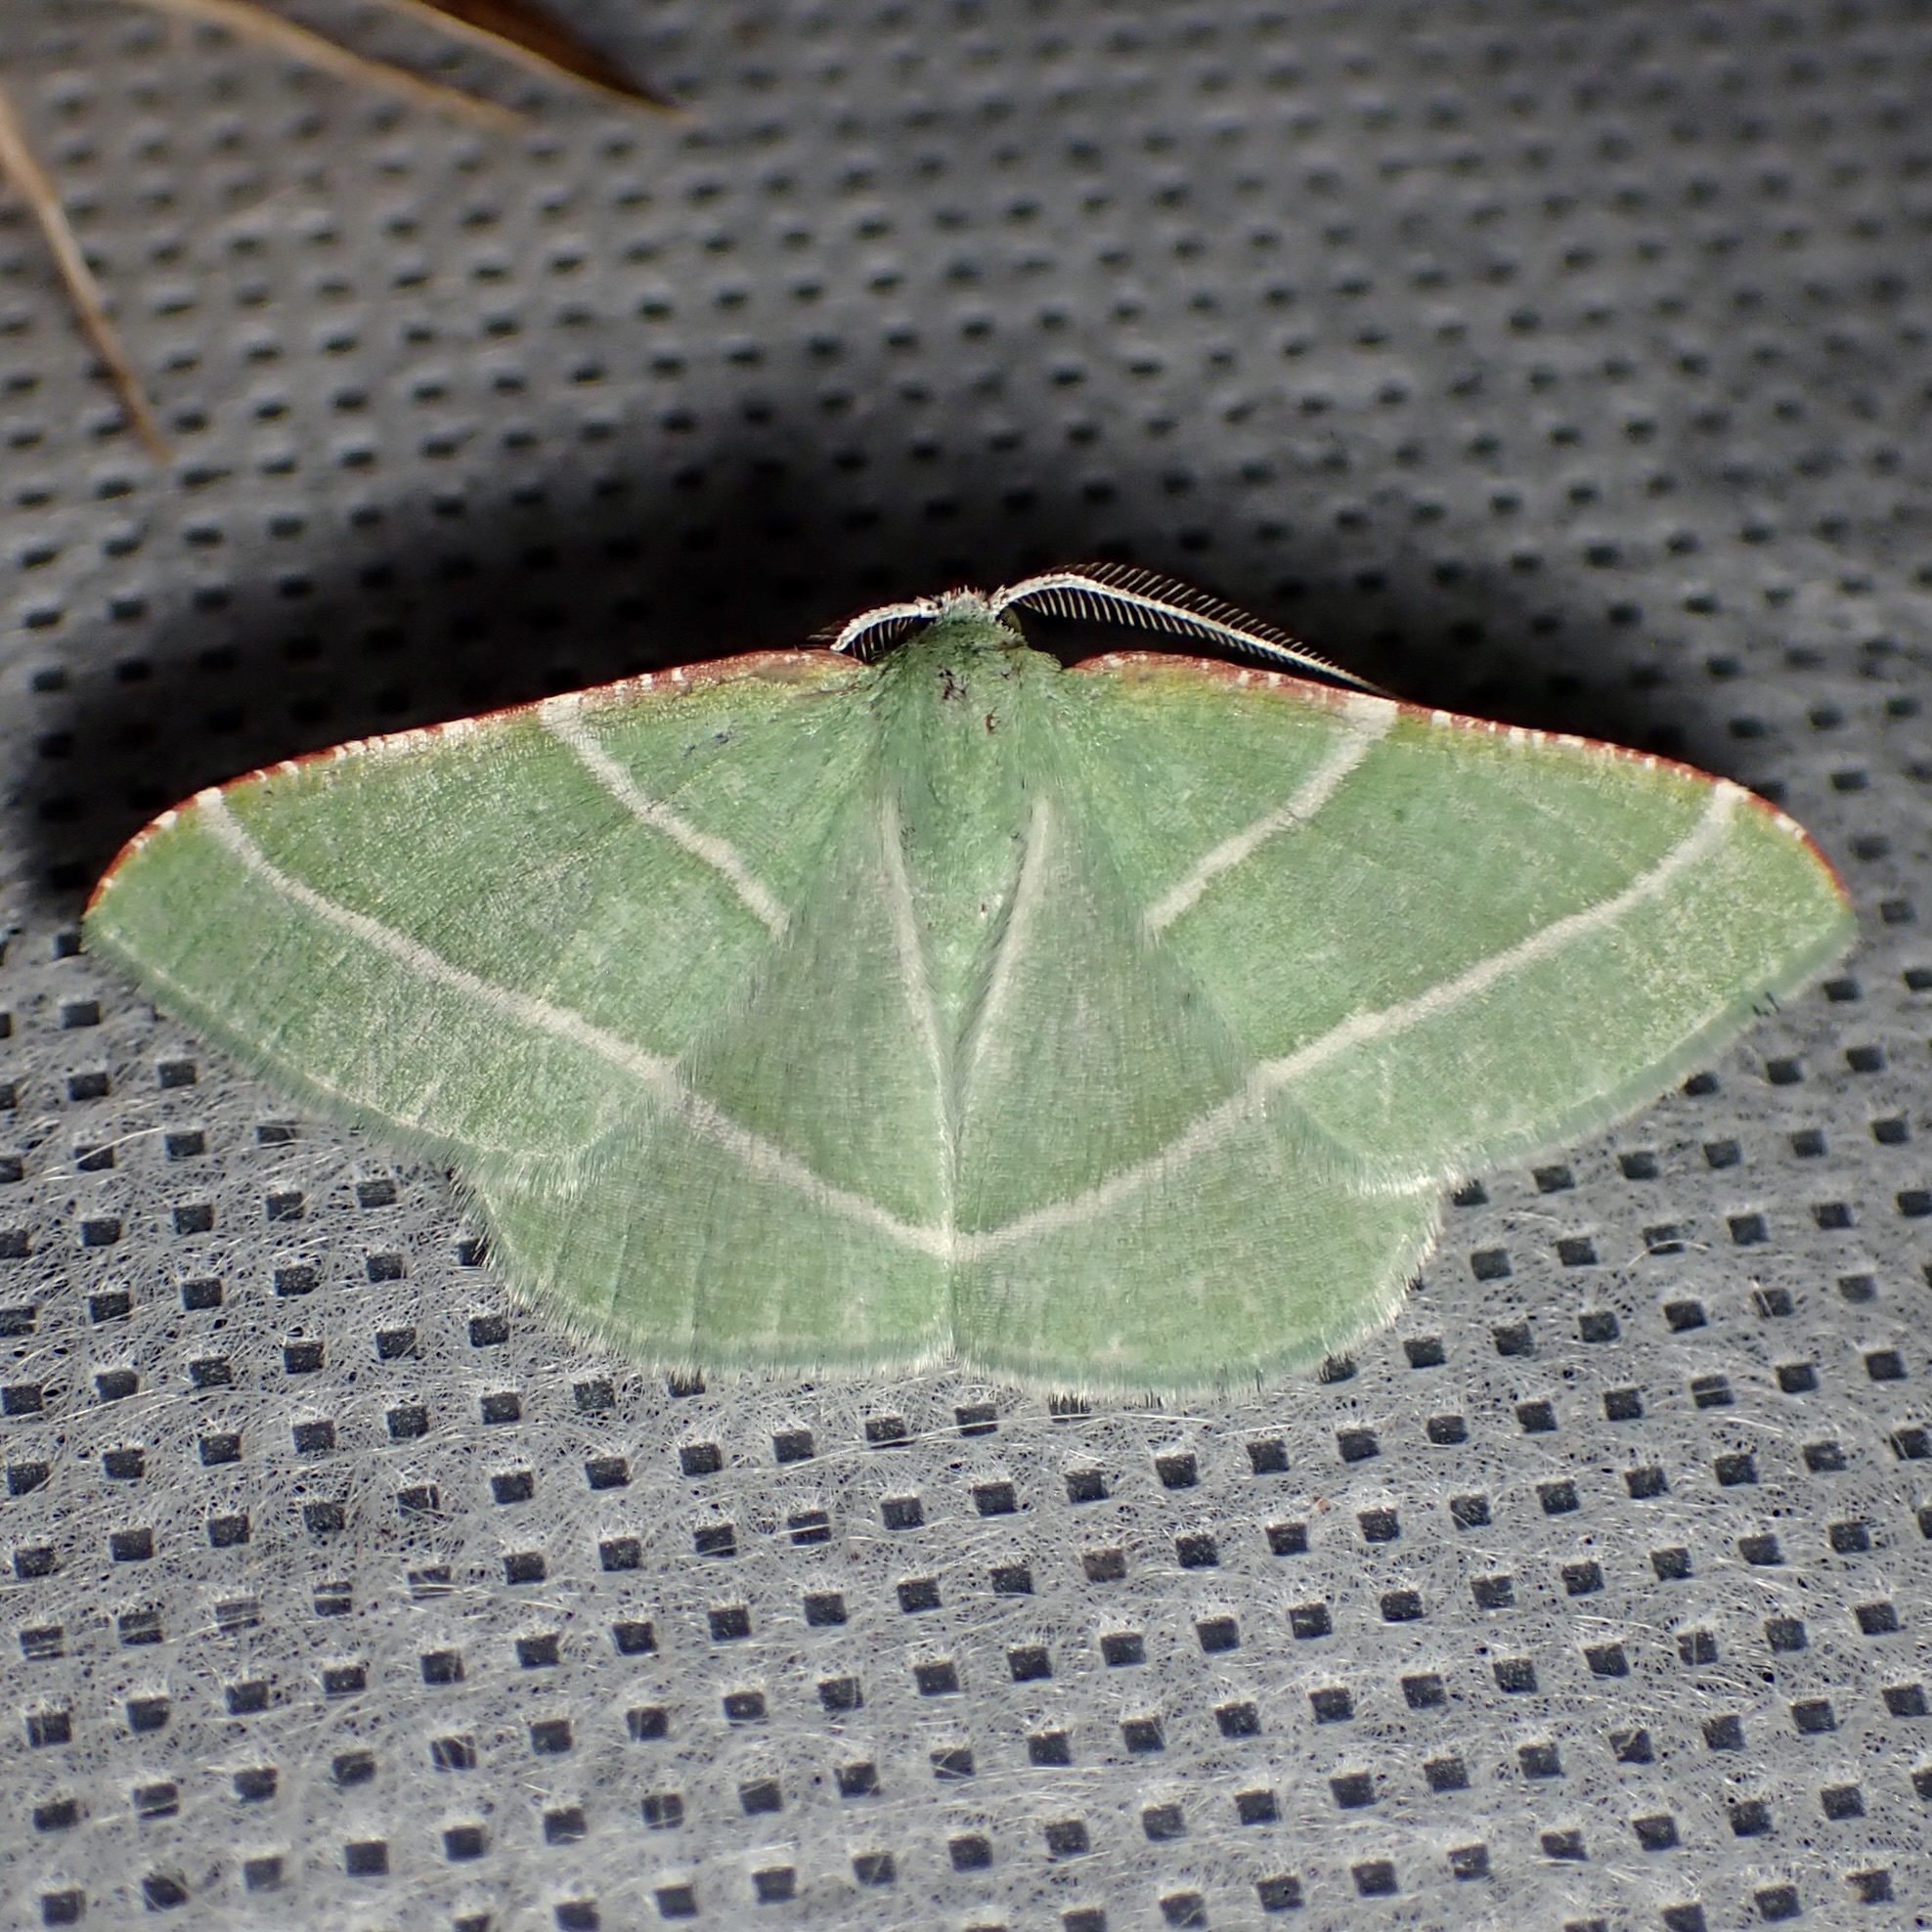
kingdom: Animalia
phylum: Arthropoda
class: Insecta
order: Lepidoptera
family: Geometridae
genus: Dichordophora
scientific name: Dichordophora phoenix
